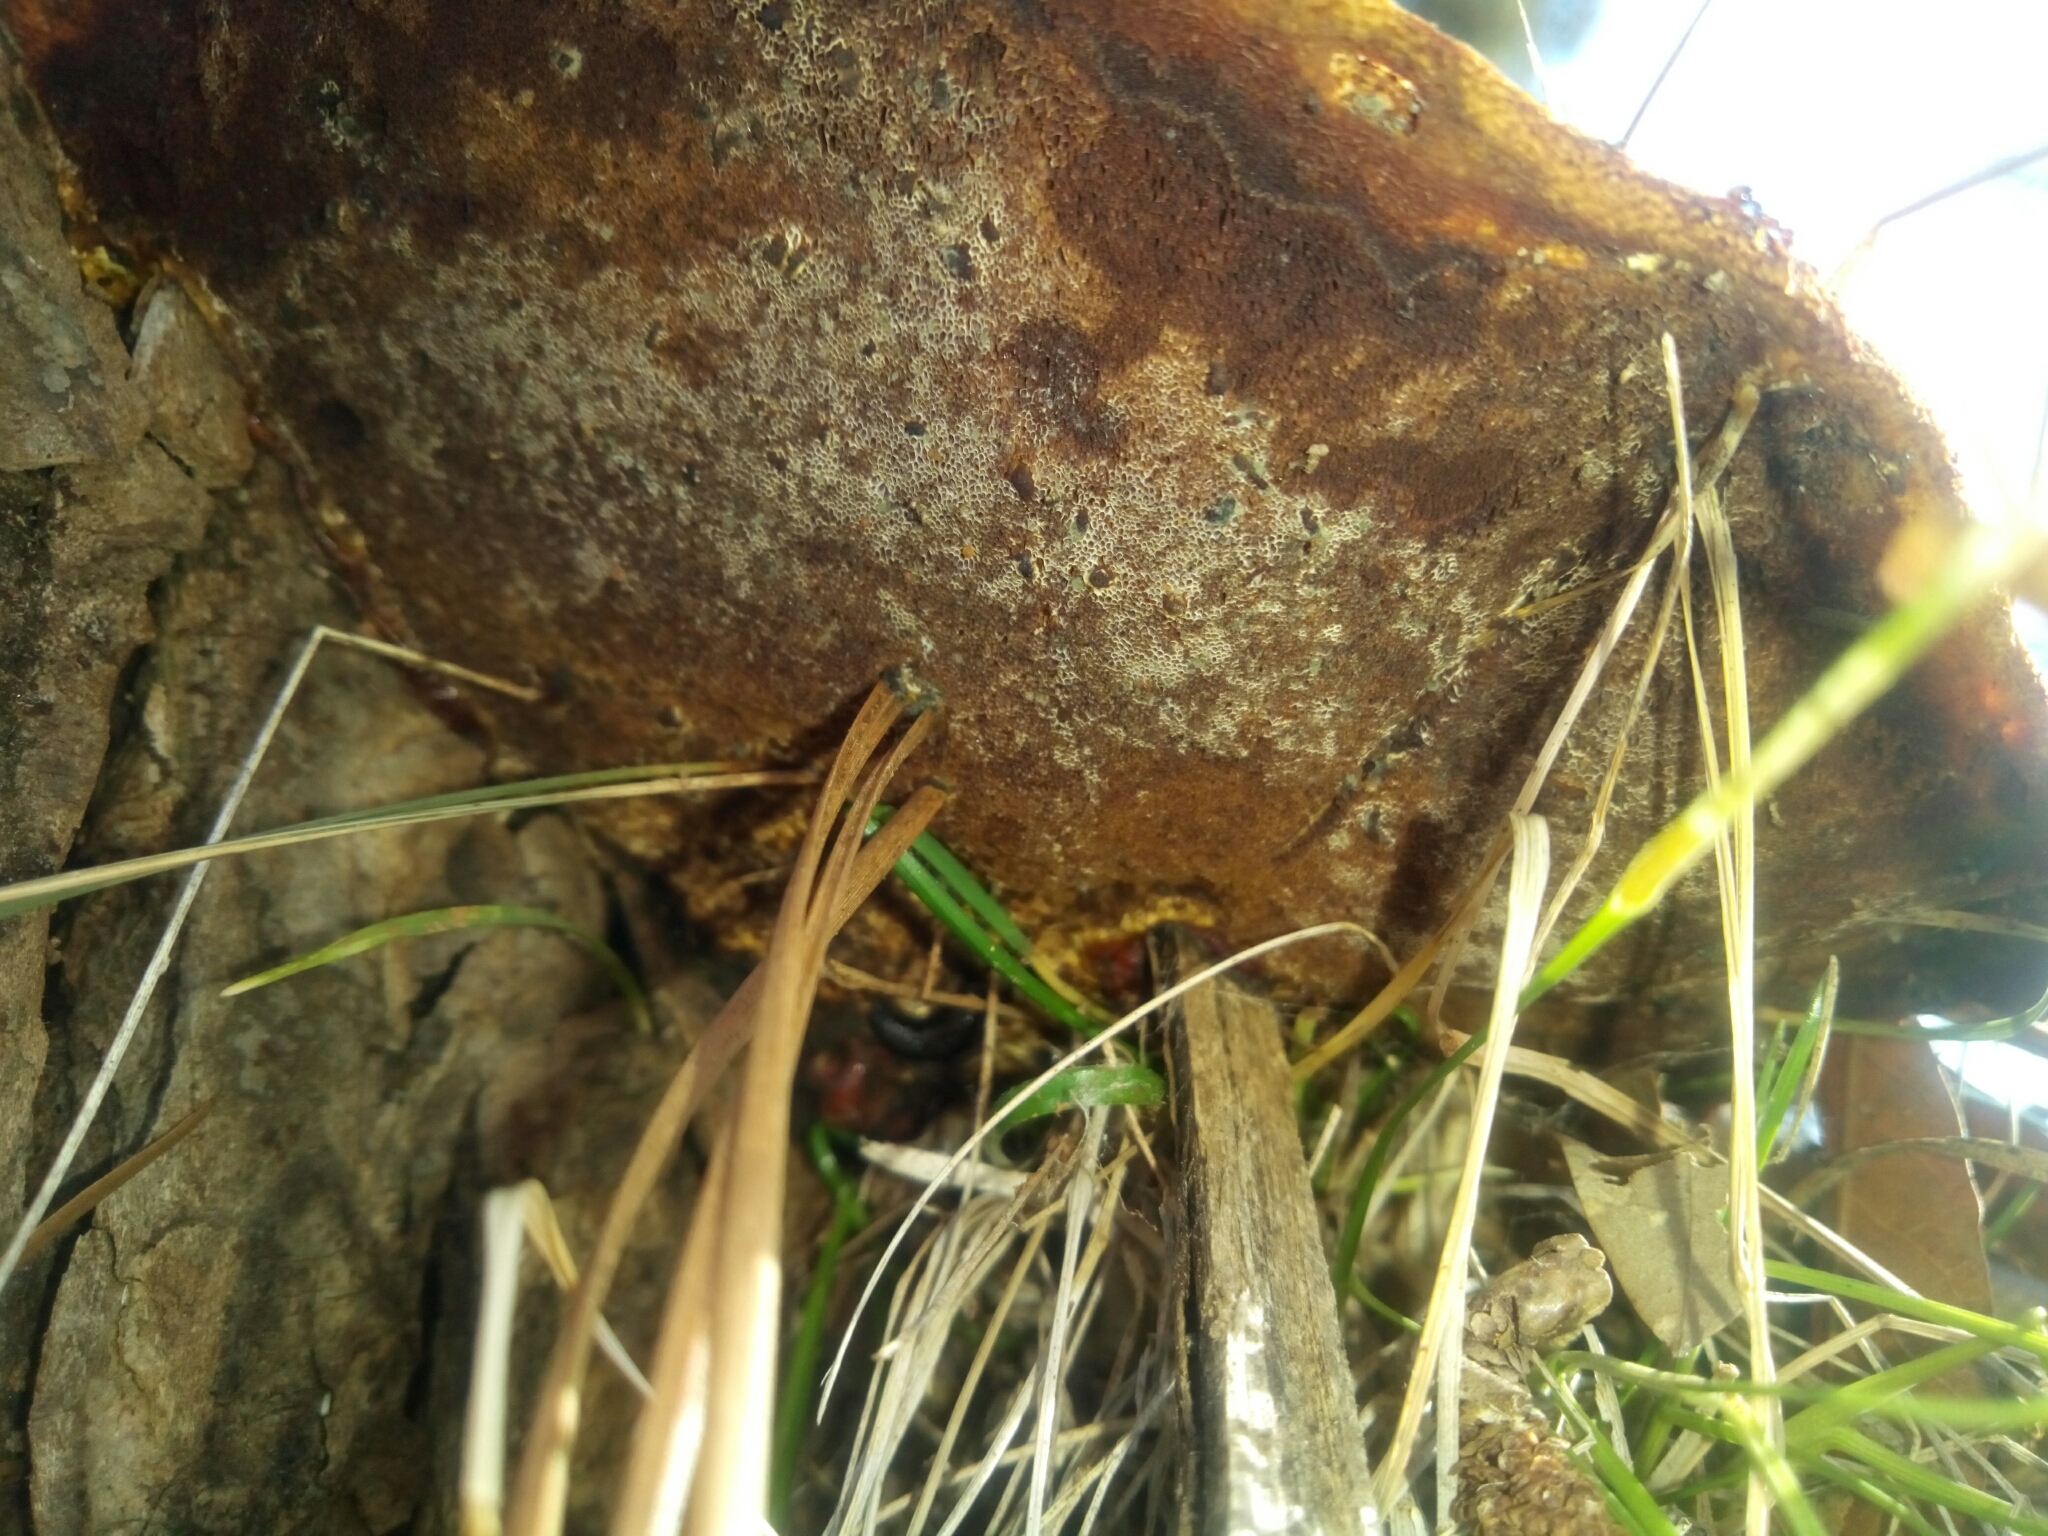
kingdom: Fungi
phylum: Basidiomycota
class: Agaricomycetes
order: Polyporales
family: Polyporaceae
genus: Ganoderma
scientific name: Ganoderma resinaceum
